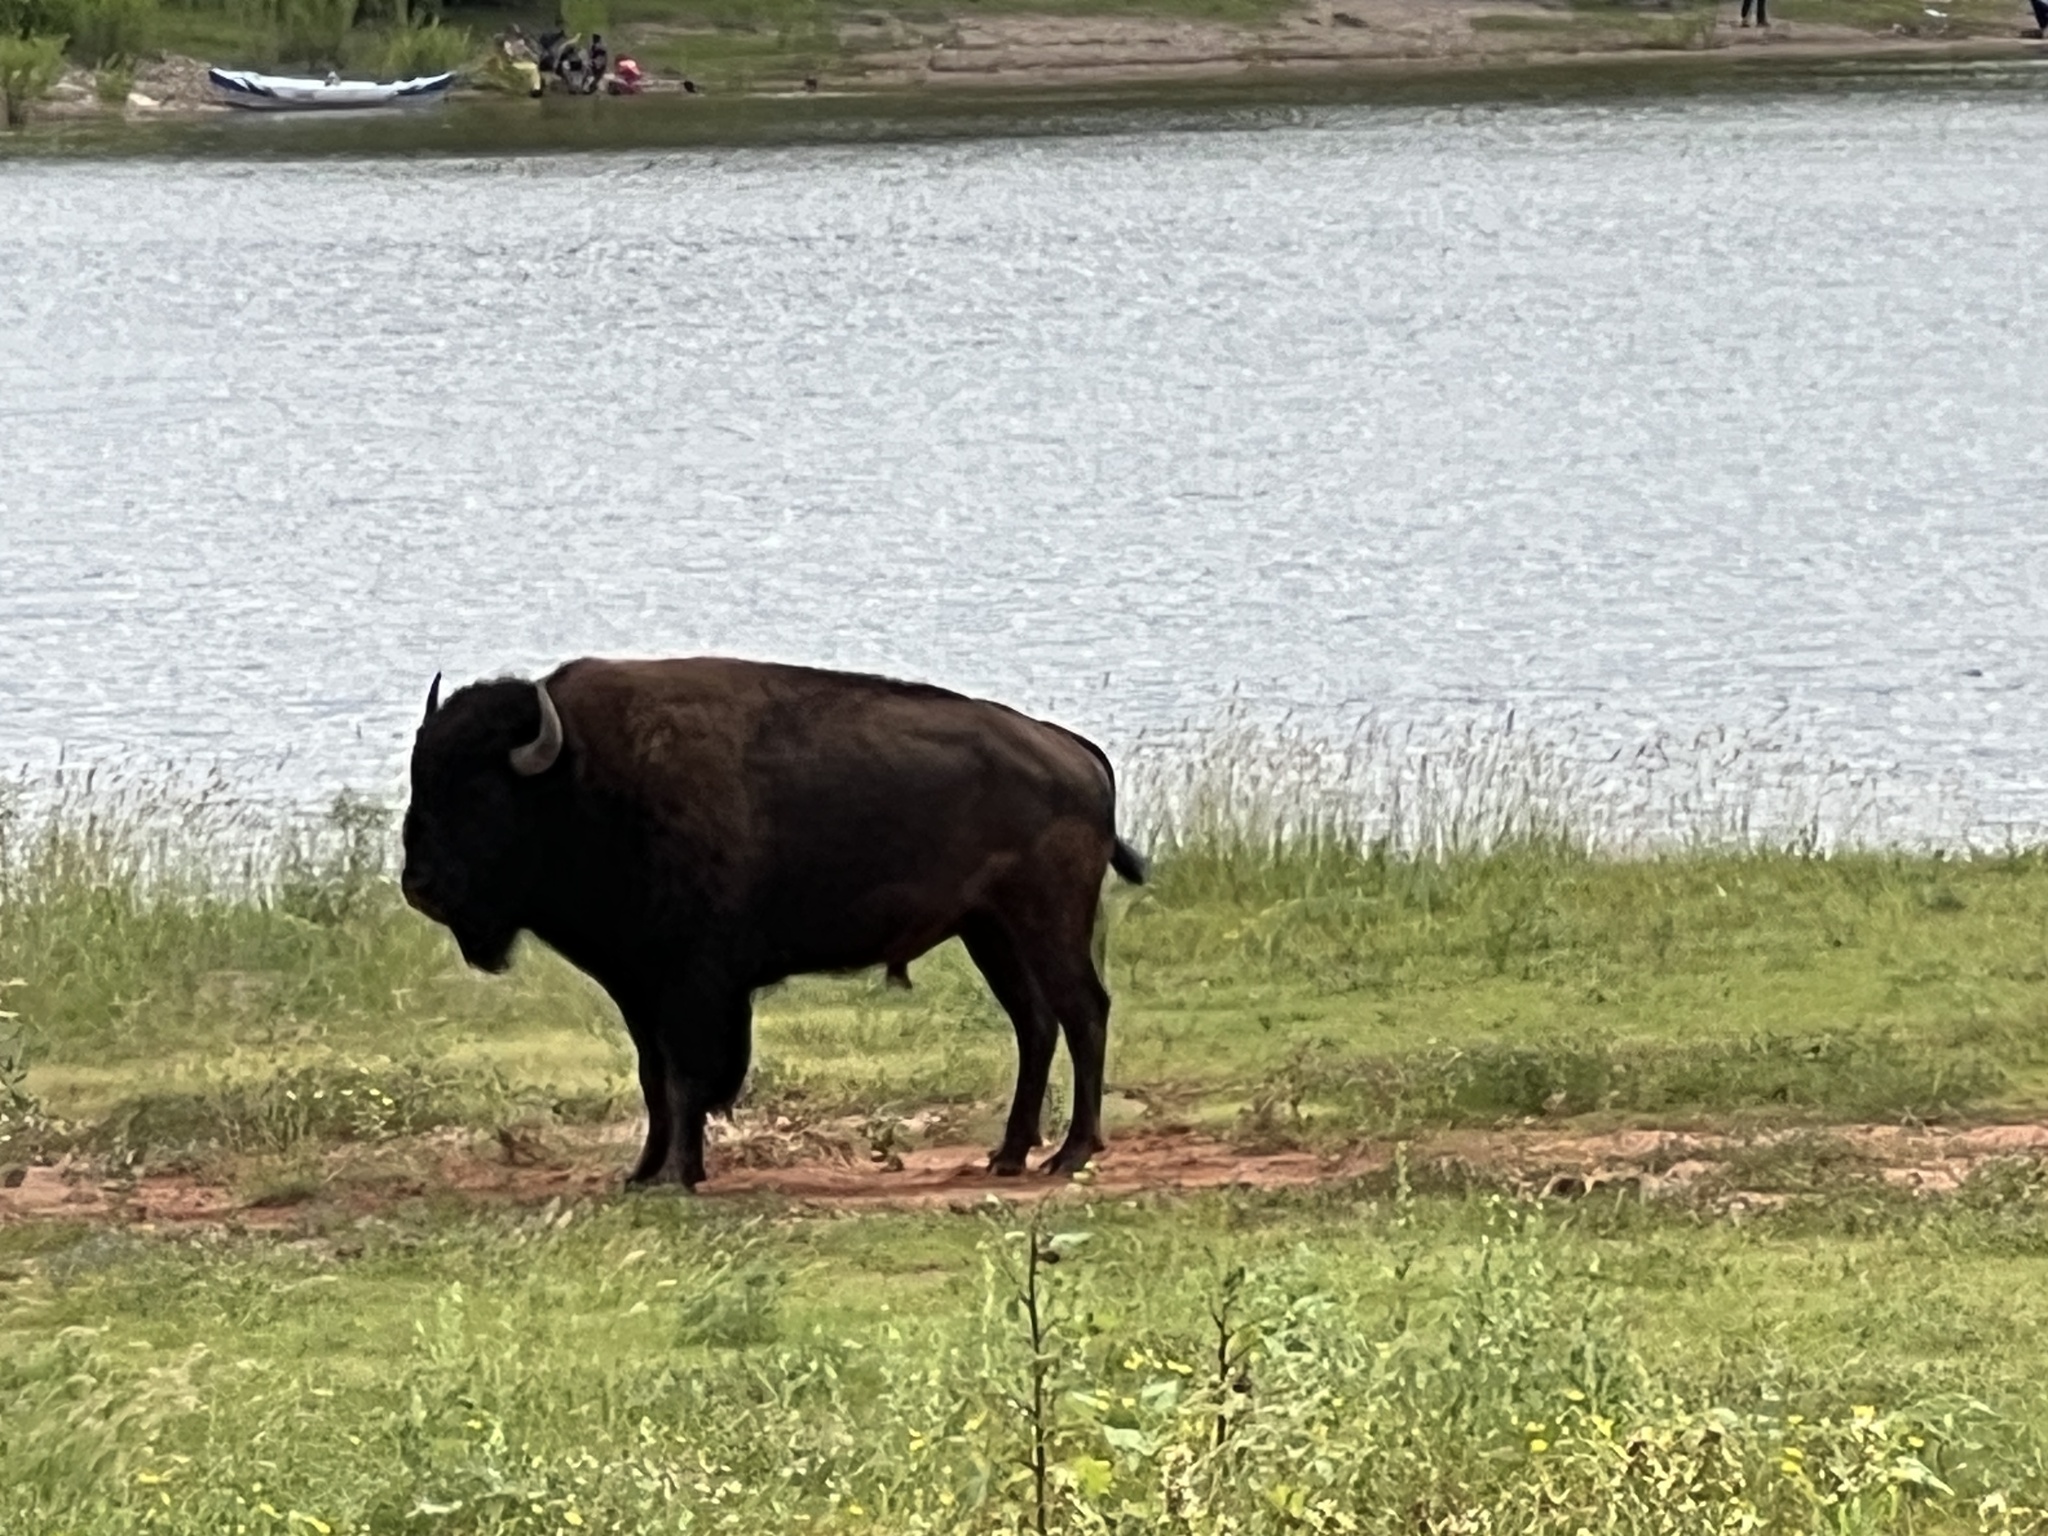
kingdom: Animalia
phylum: Chordata
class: Mammalia
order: Artiodactyla
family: Bovidae
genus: Bison
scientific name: Bison bison
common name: American bison
